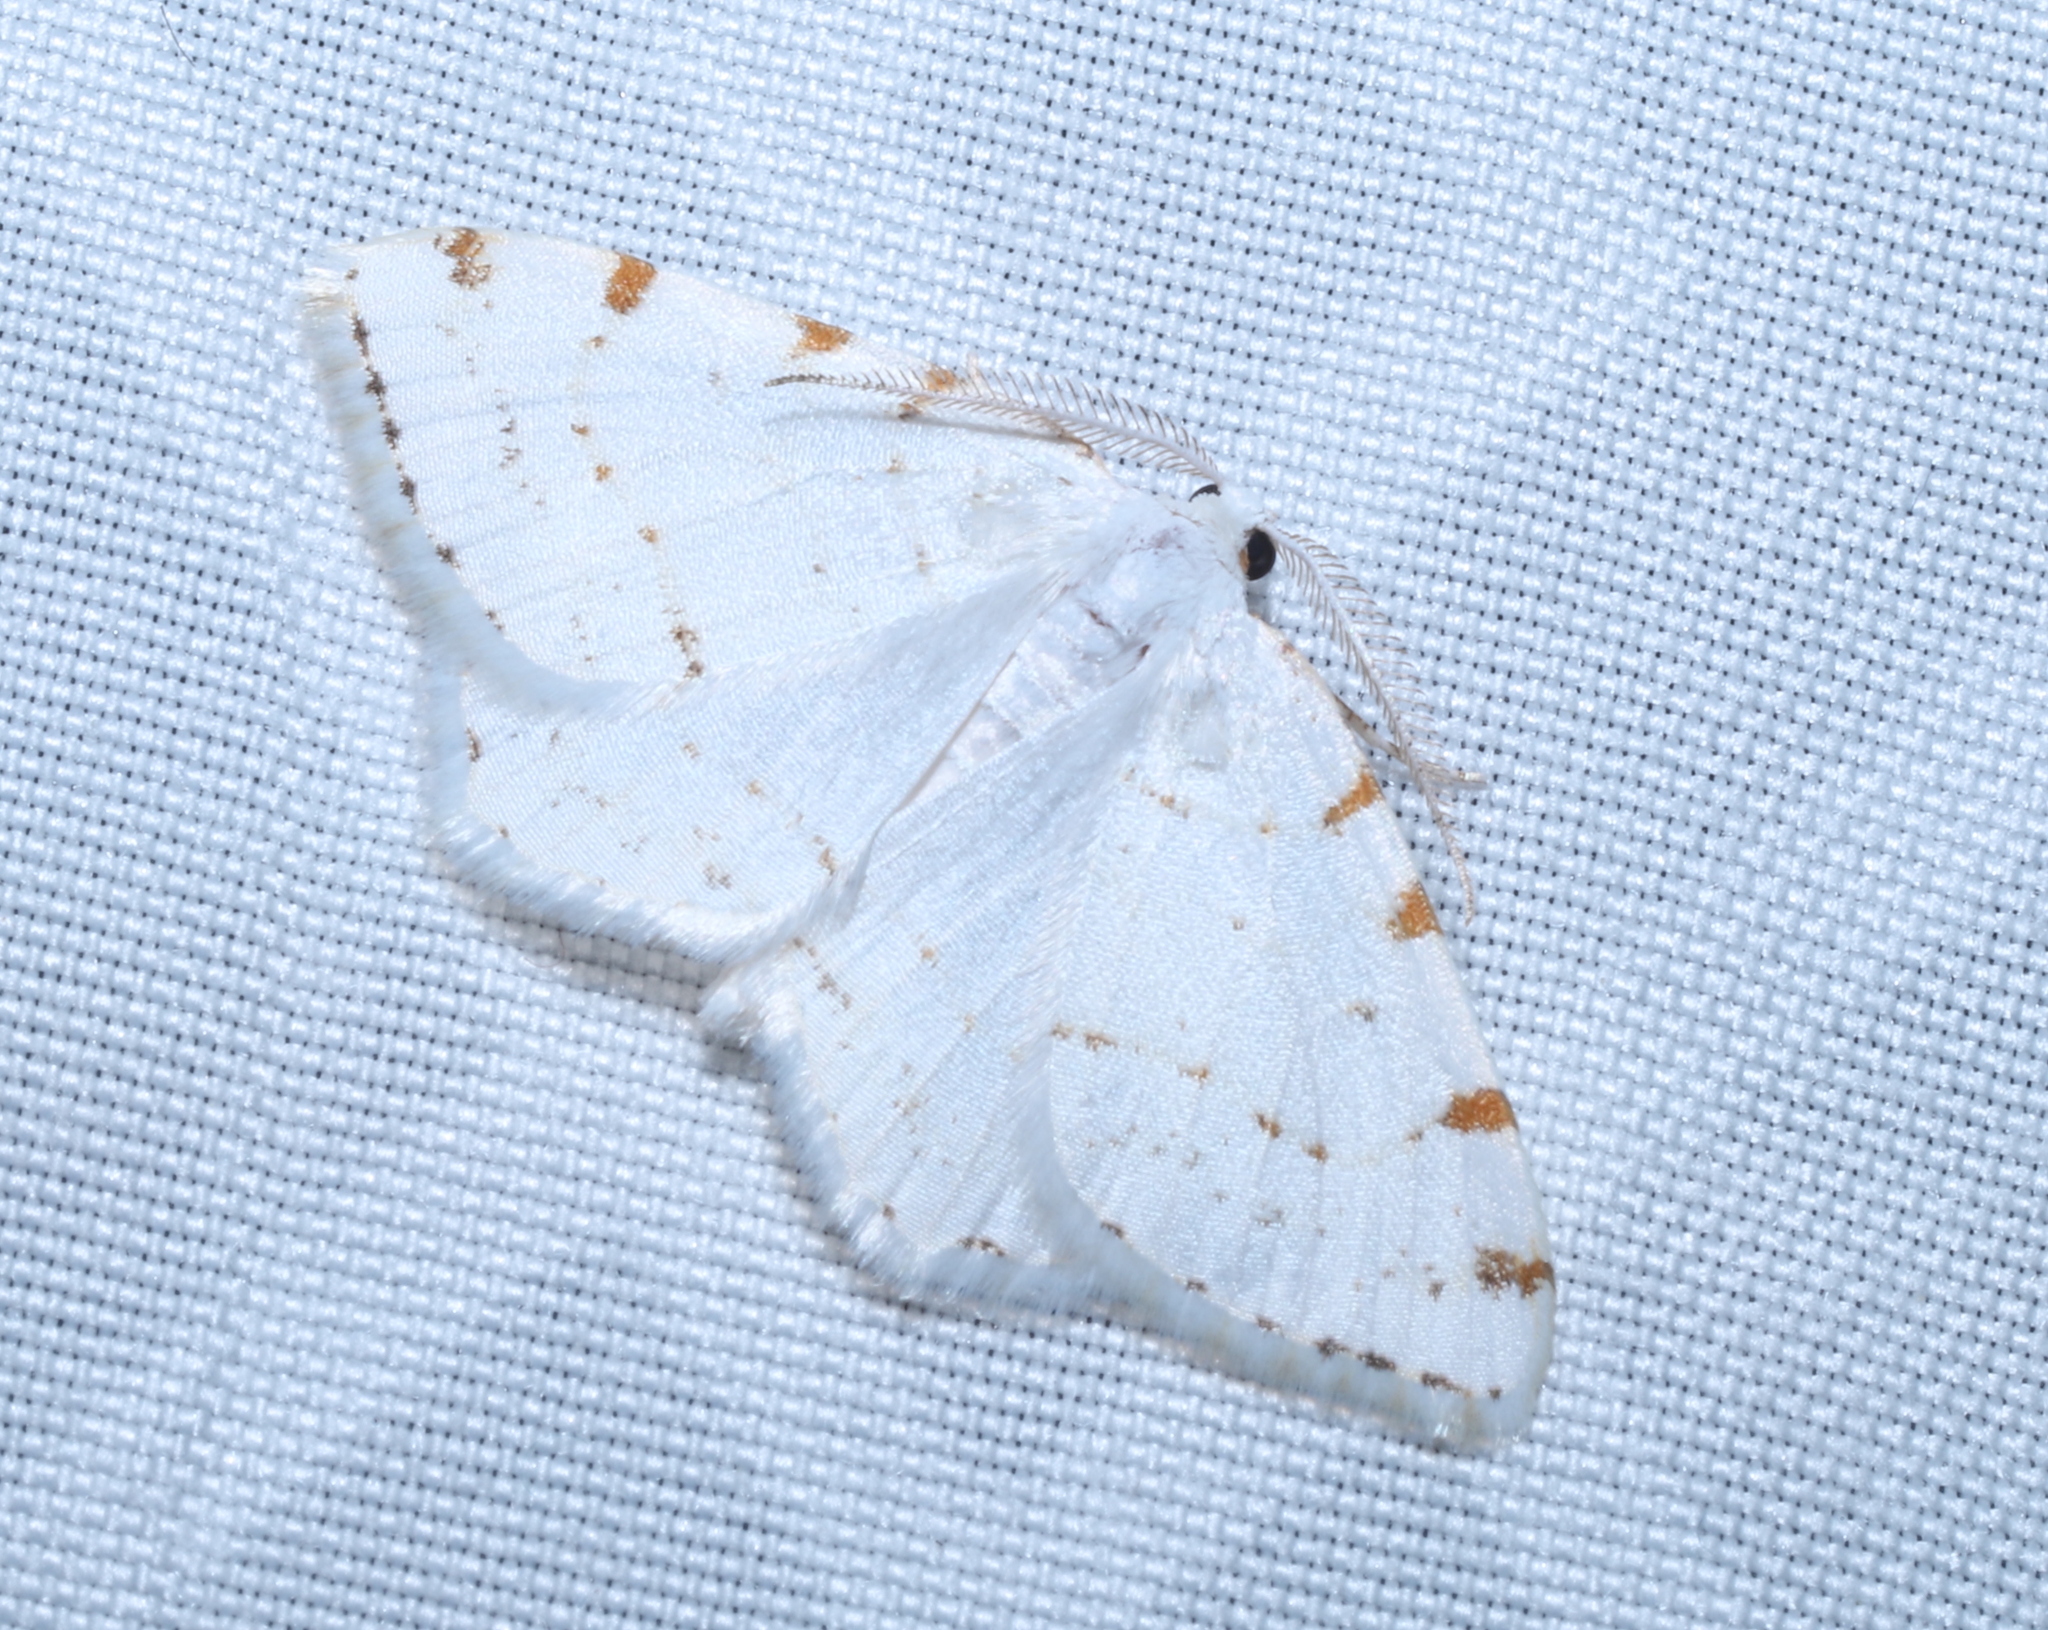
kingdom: Animalia
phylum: Arthropoda
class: Insecta
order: Lepidoptera
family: Geometridae
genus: Macaria
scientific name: Macaria pustularia
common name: Lesser maple spanworm moth
